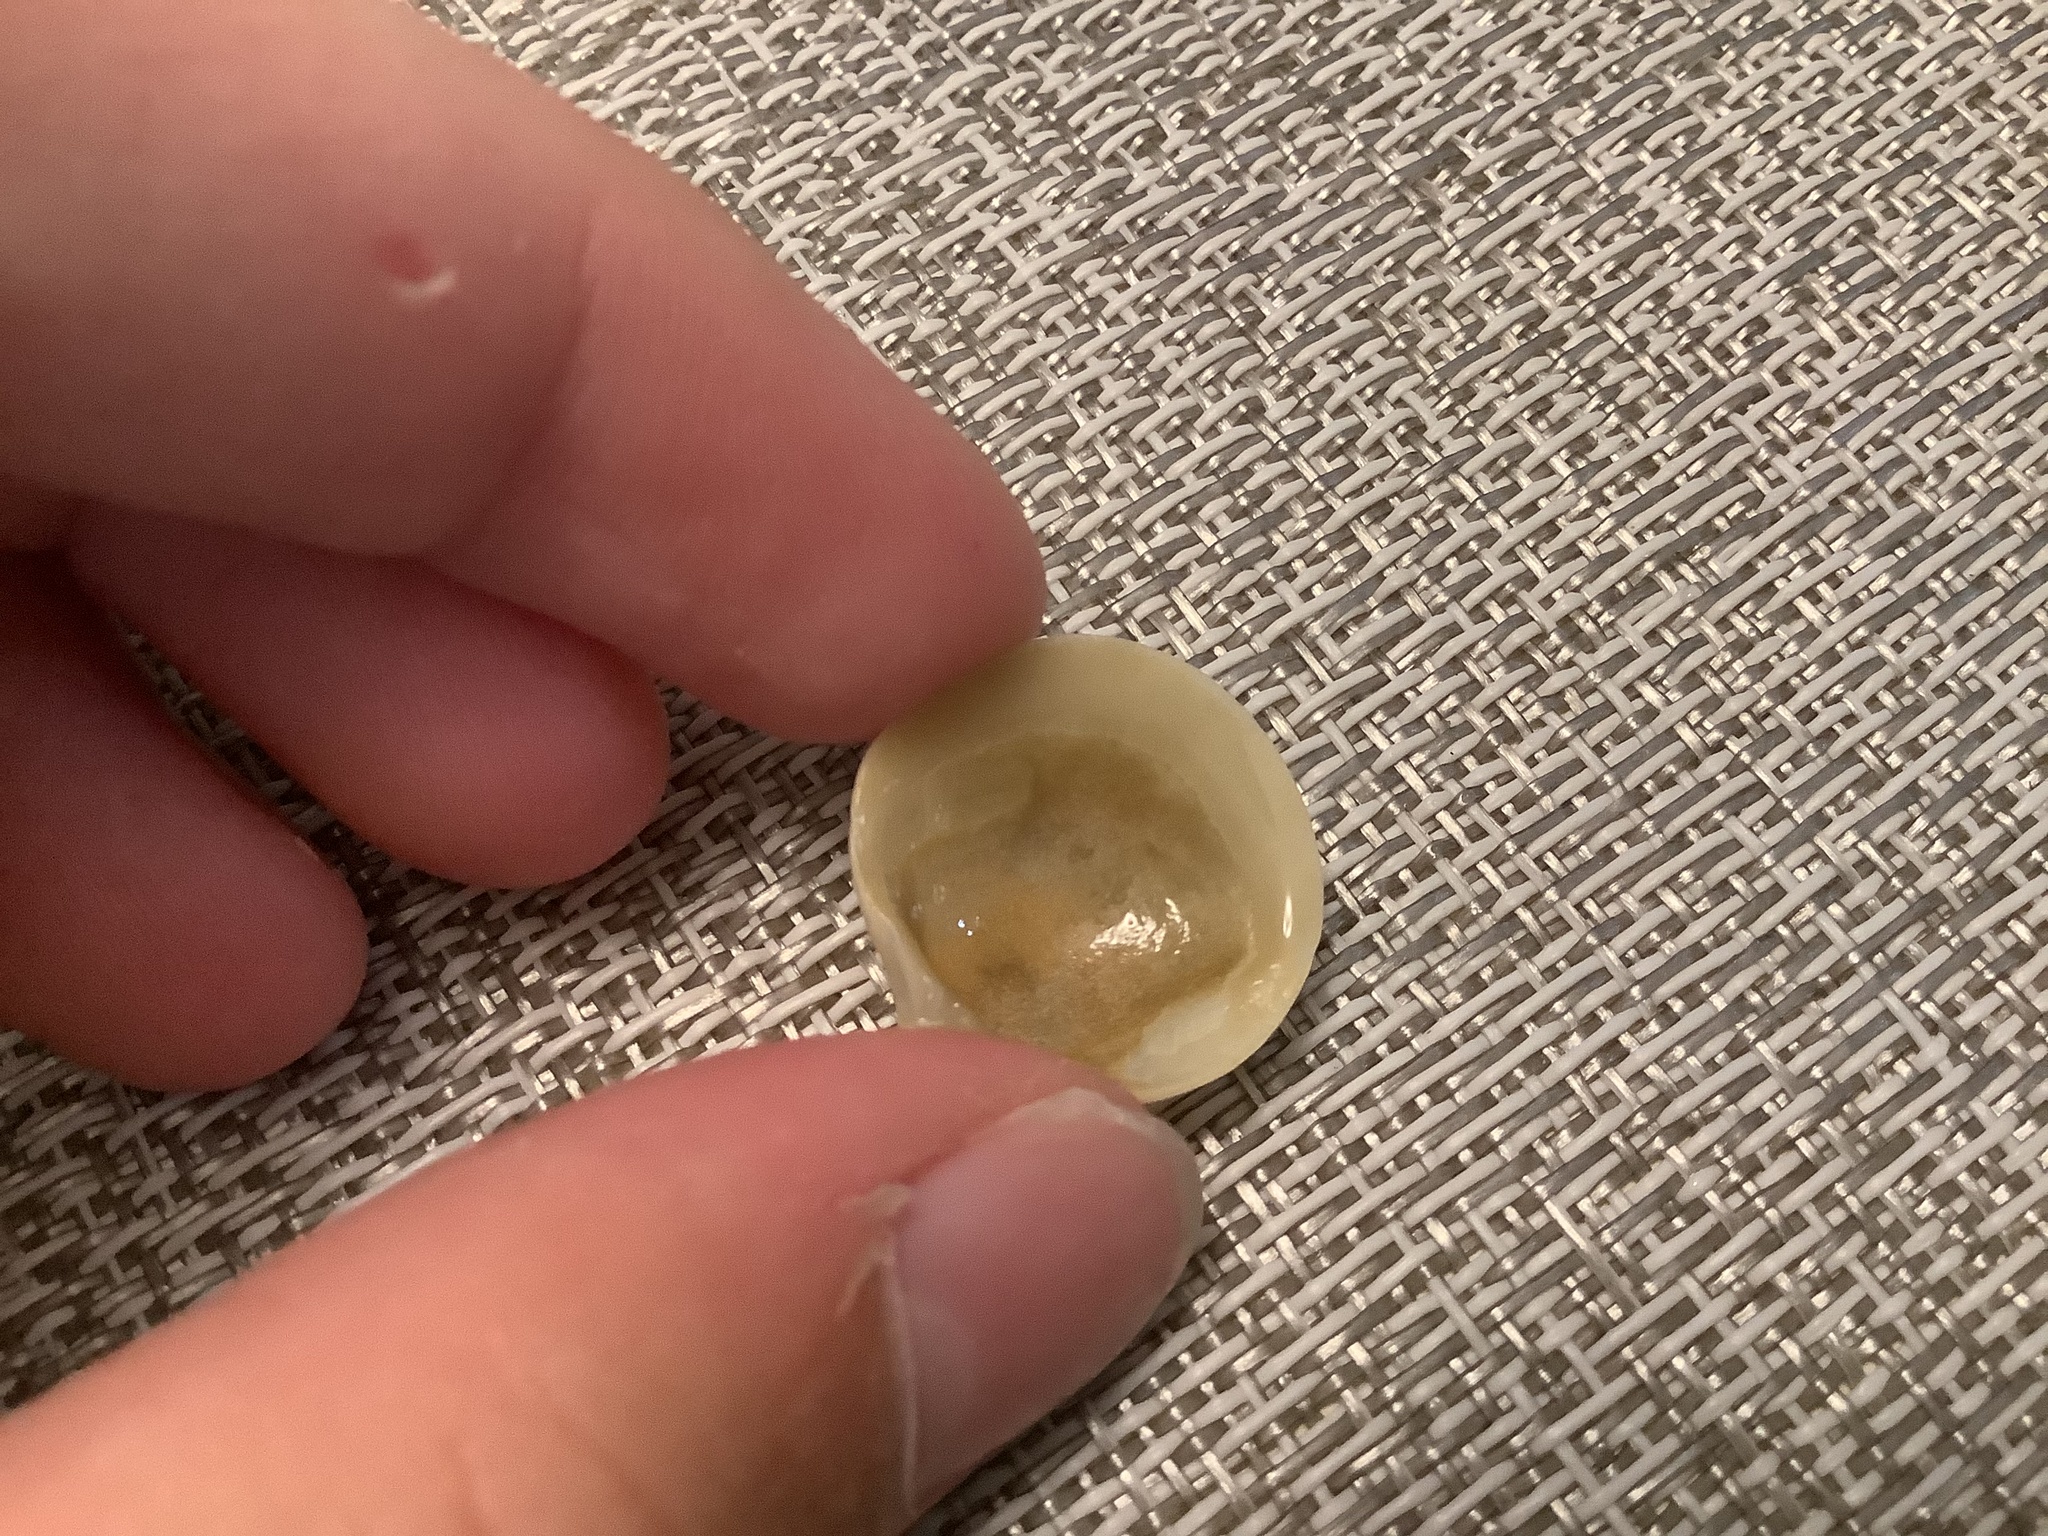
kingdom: Animalia
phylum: Mollusca
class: Bivalvia
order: Lucinida
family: Lucinidae
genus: Callucina
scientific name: Callucina keenae
